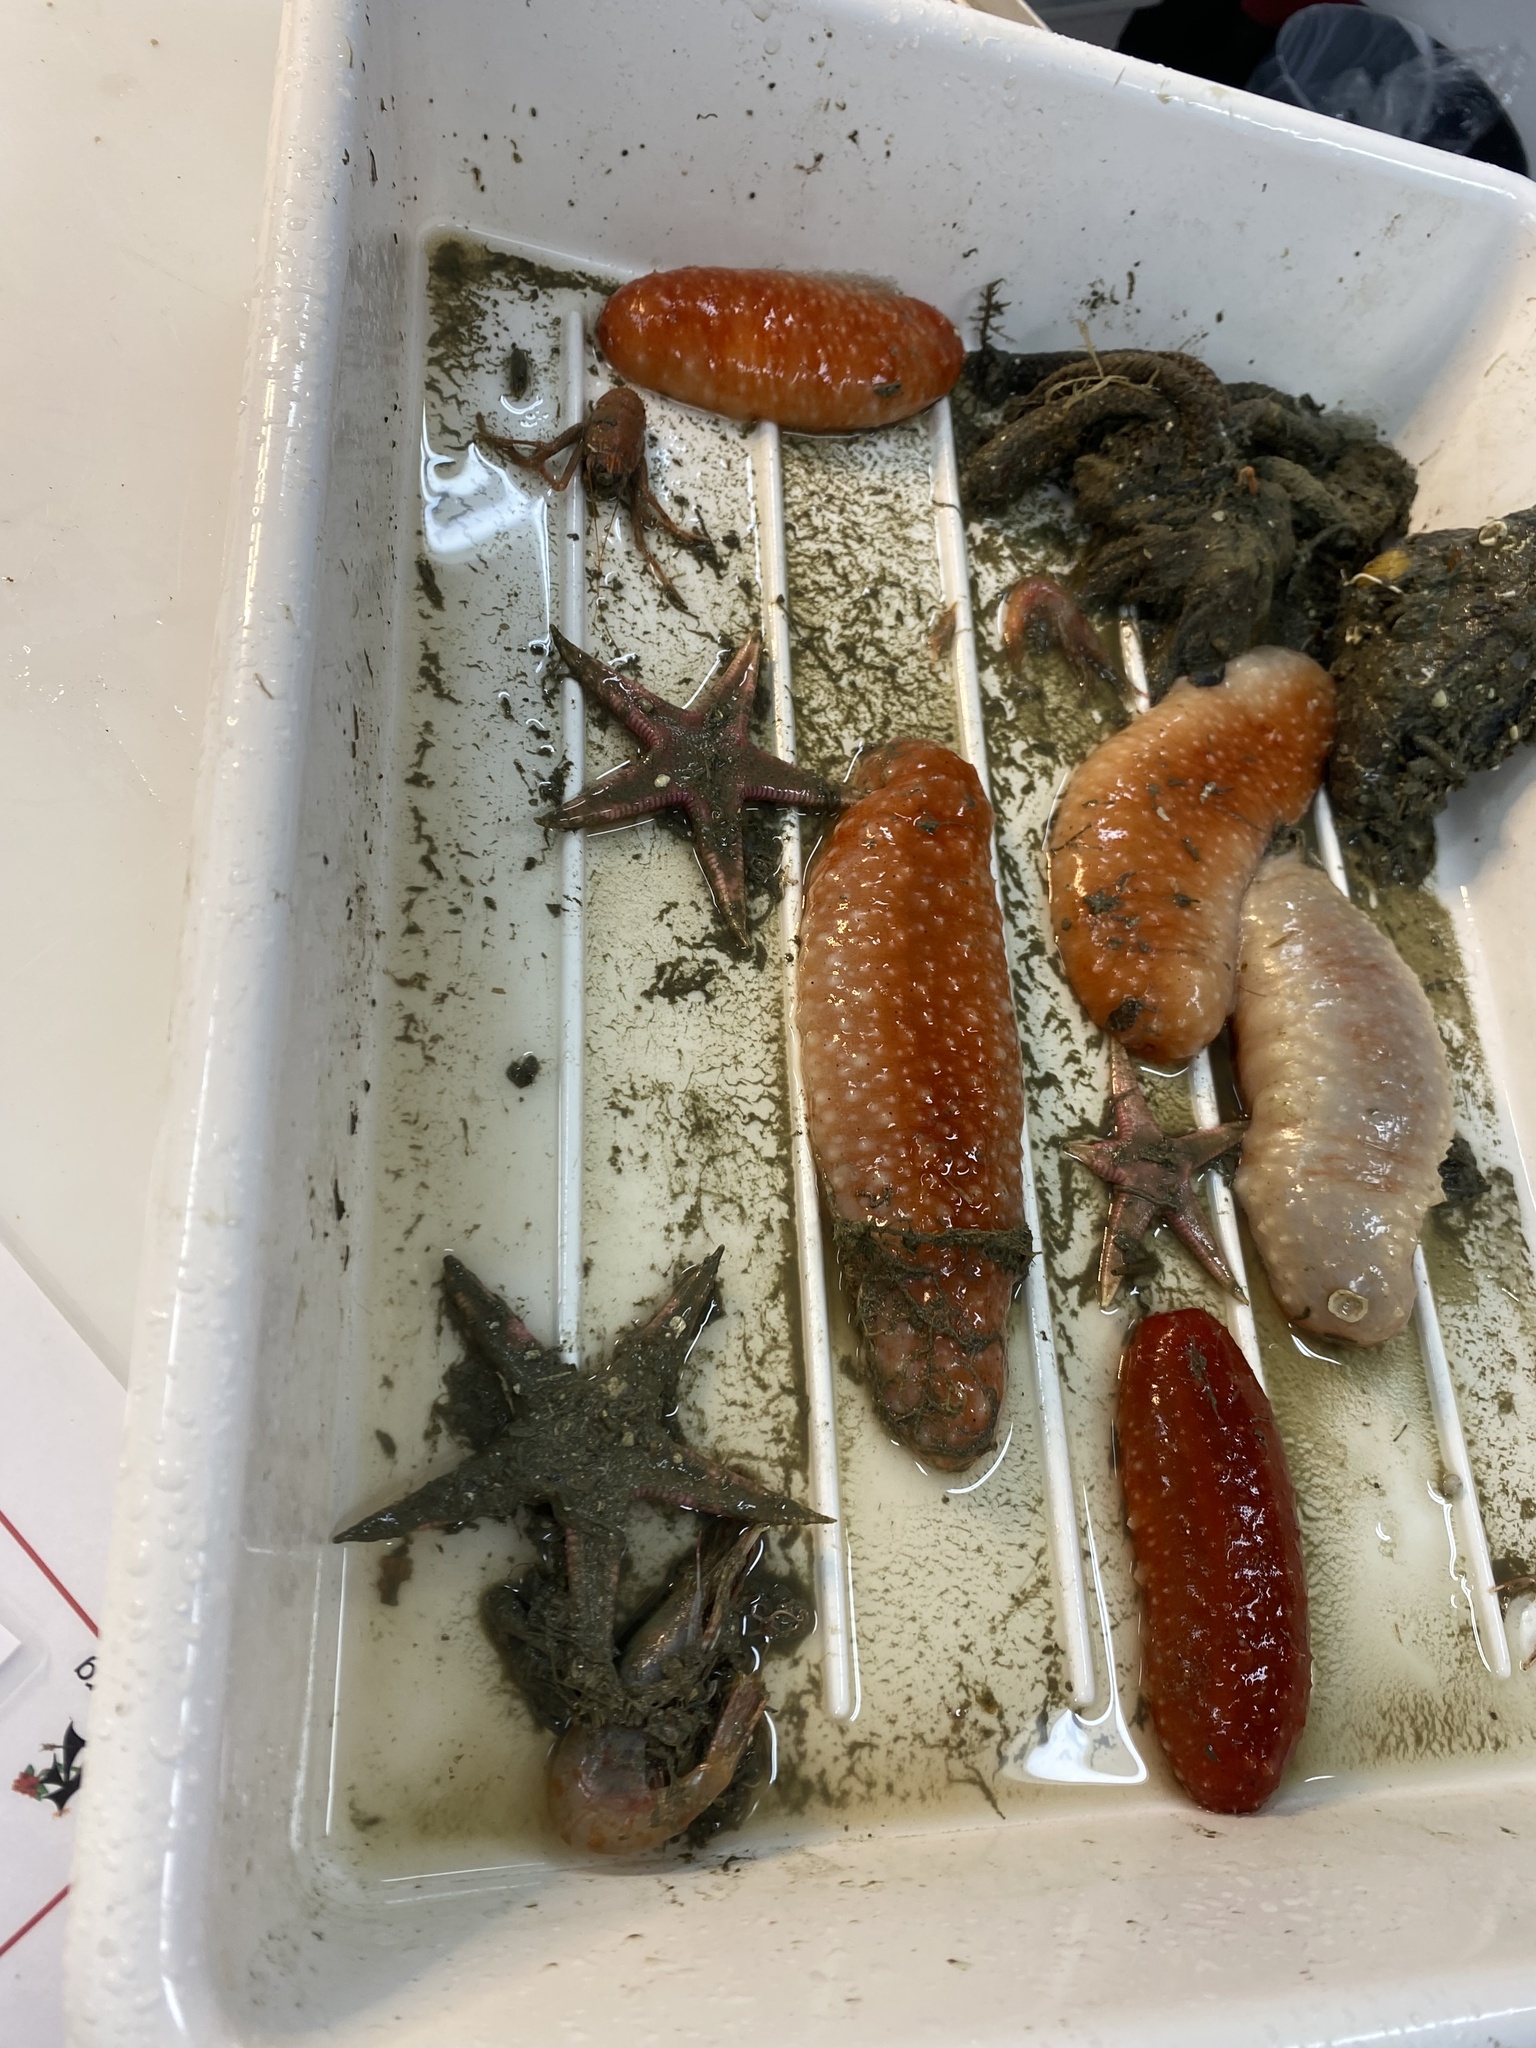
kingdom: Animalia
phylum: Echinodermata
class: Holothuroidea
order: Synallactida
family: Stichopodidae
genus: Parastichopus
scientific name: Parastichopus tremulus
